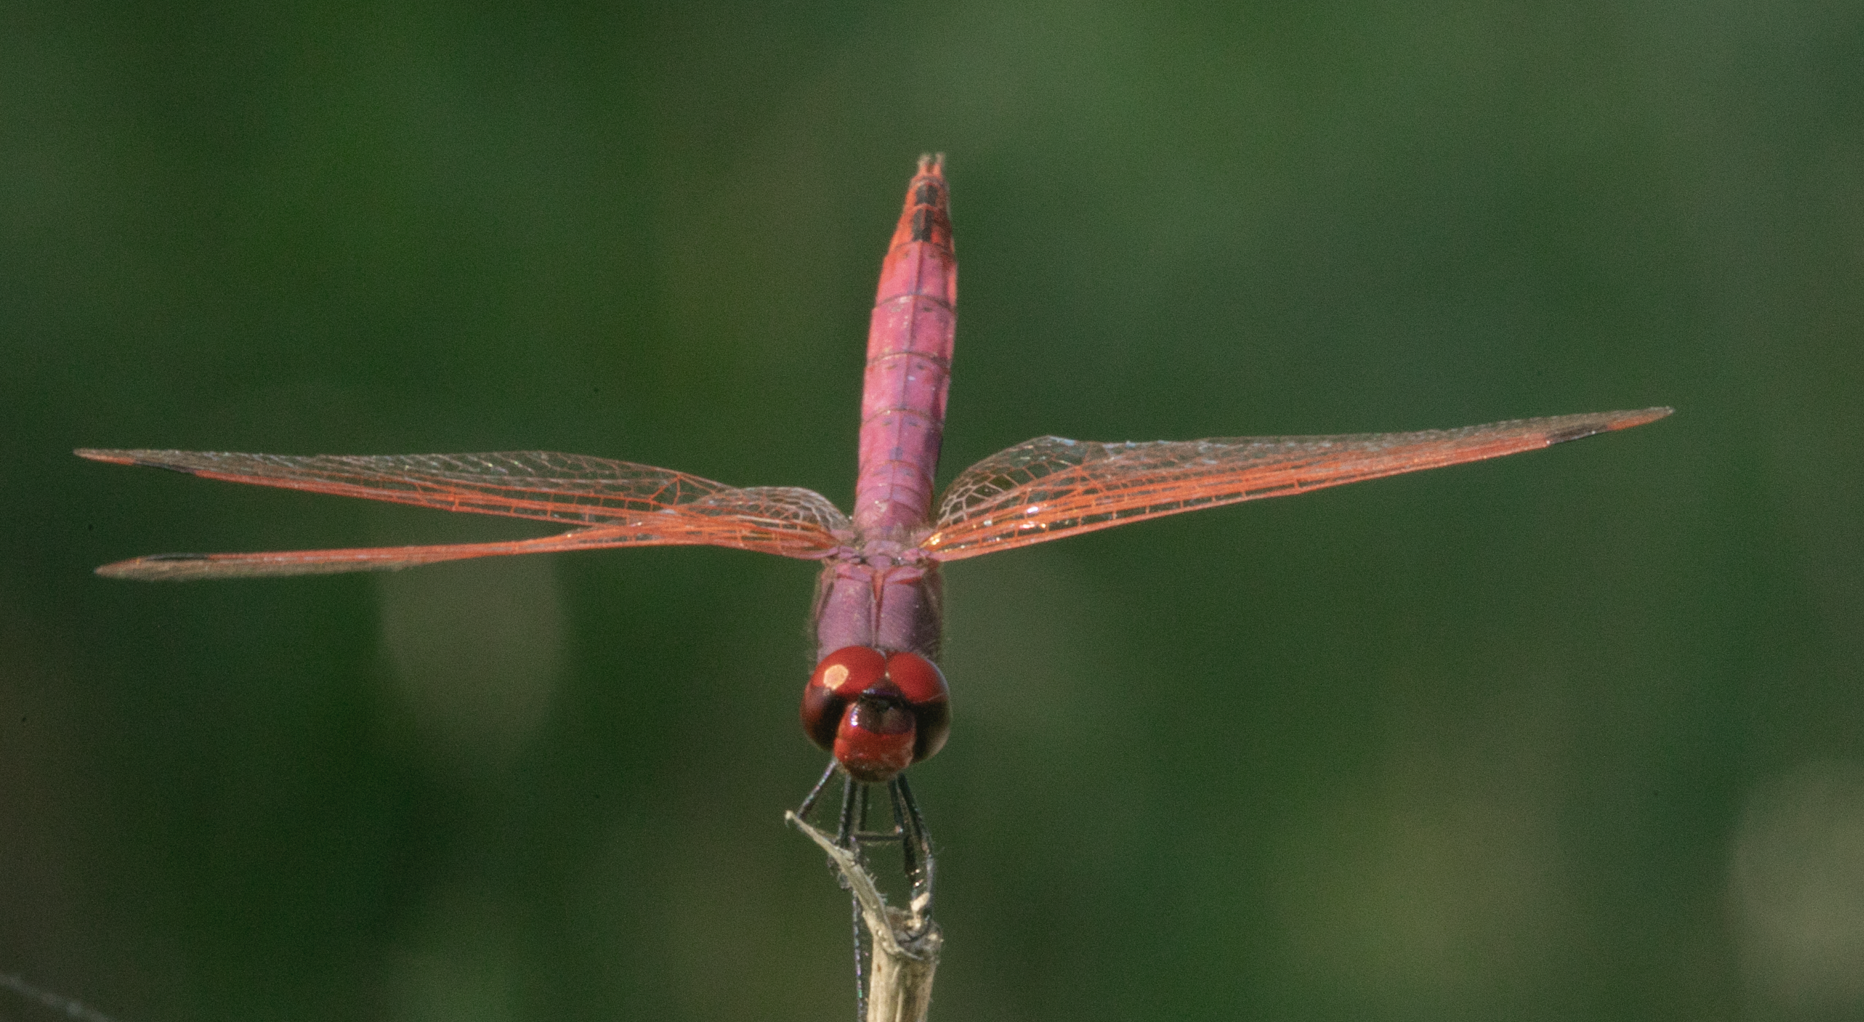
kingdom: Animalia
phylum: Arthropoda
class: Insecta
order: Odonata
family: Libellulidae
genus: Trithemis
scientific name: Trithemis annulata
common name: Violet dropwing
